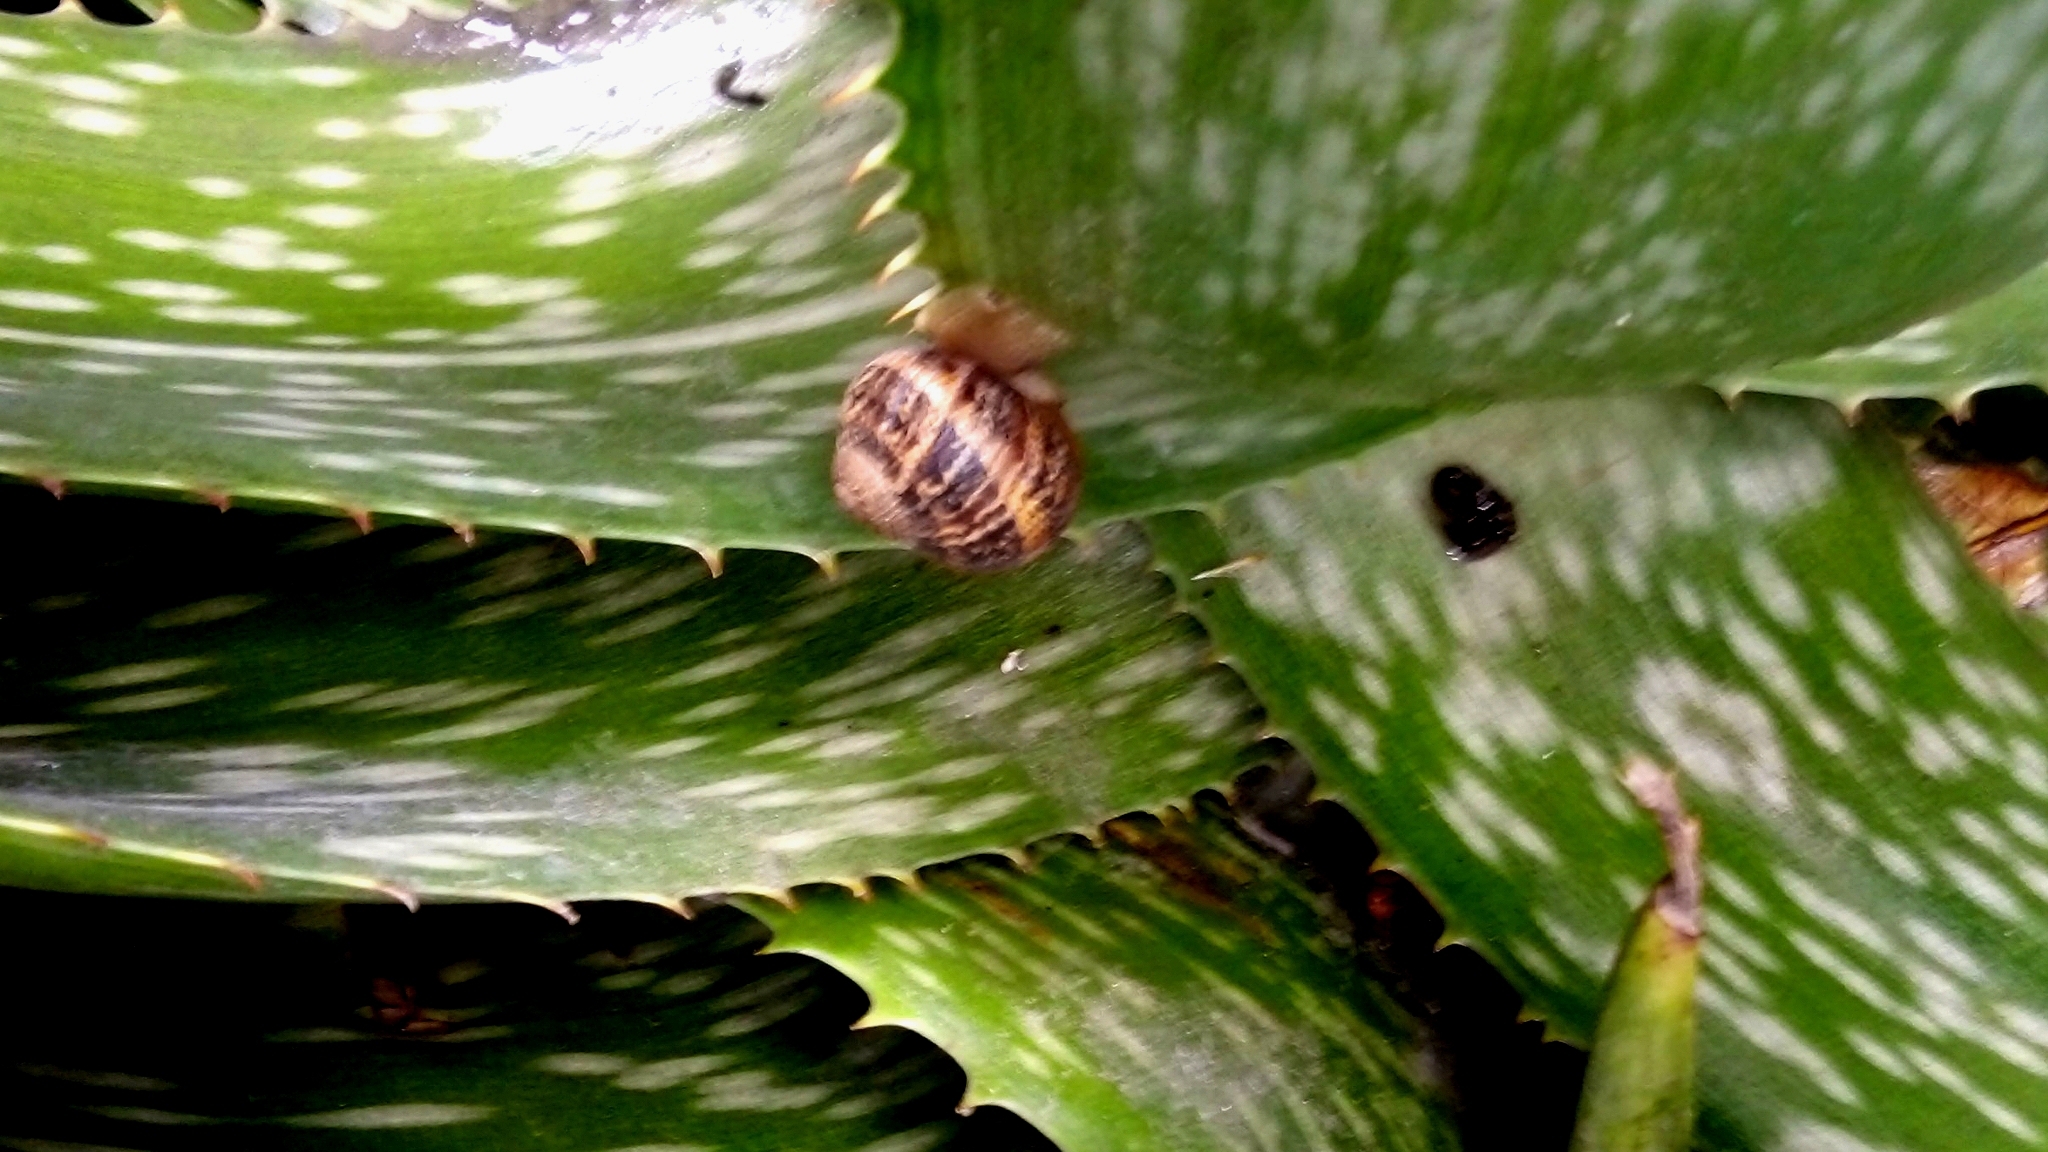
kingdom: Animalia
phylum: Mollusca
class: Gastropoda
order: Stylommatophora
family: Helicidae
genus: Cornu
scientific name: Cornu aspersum
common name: Brown garden snail
